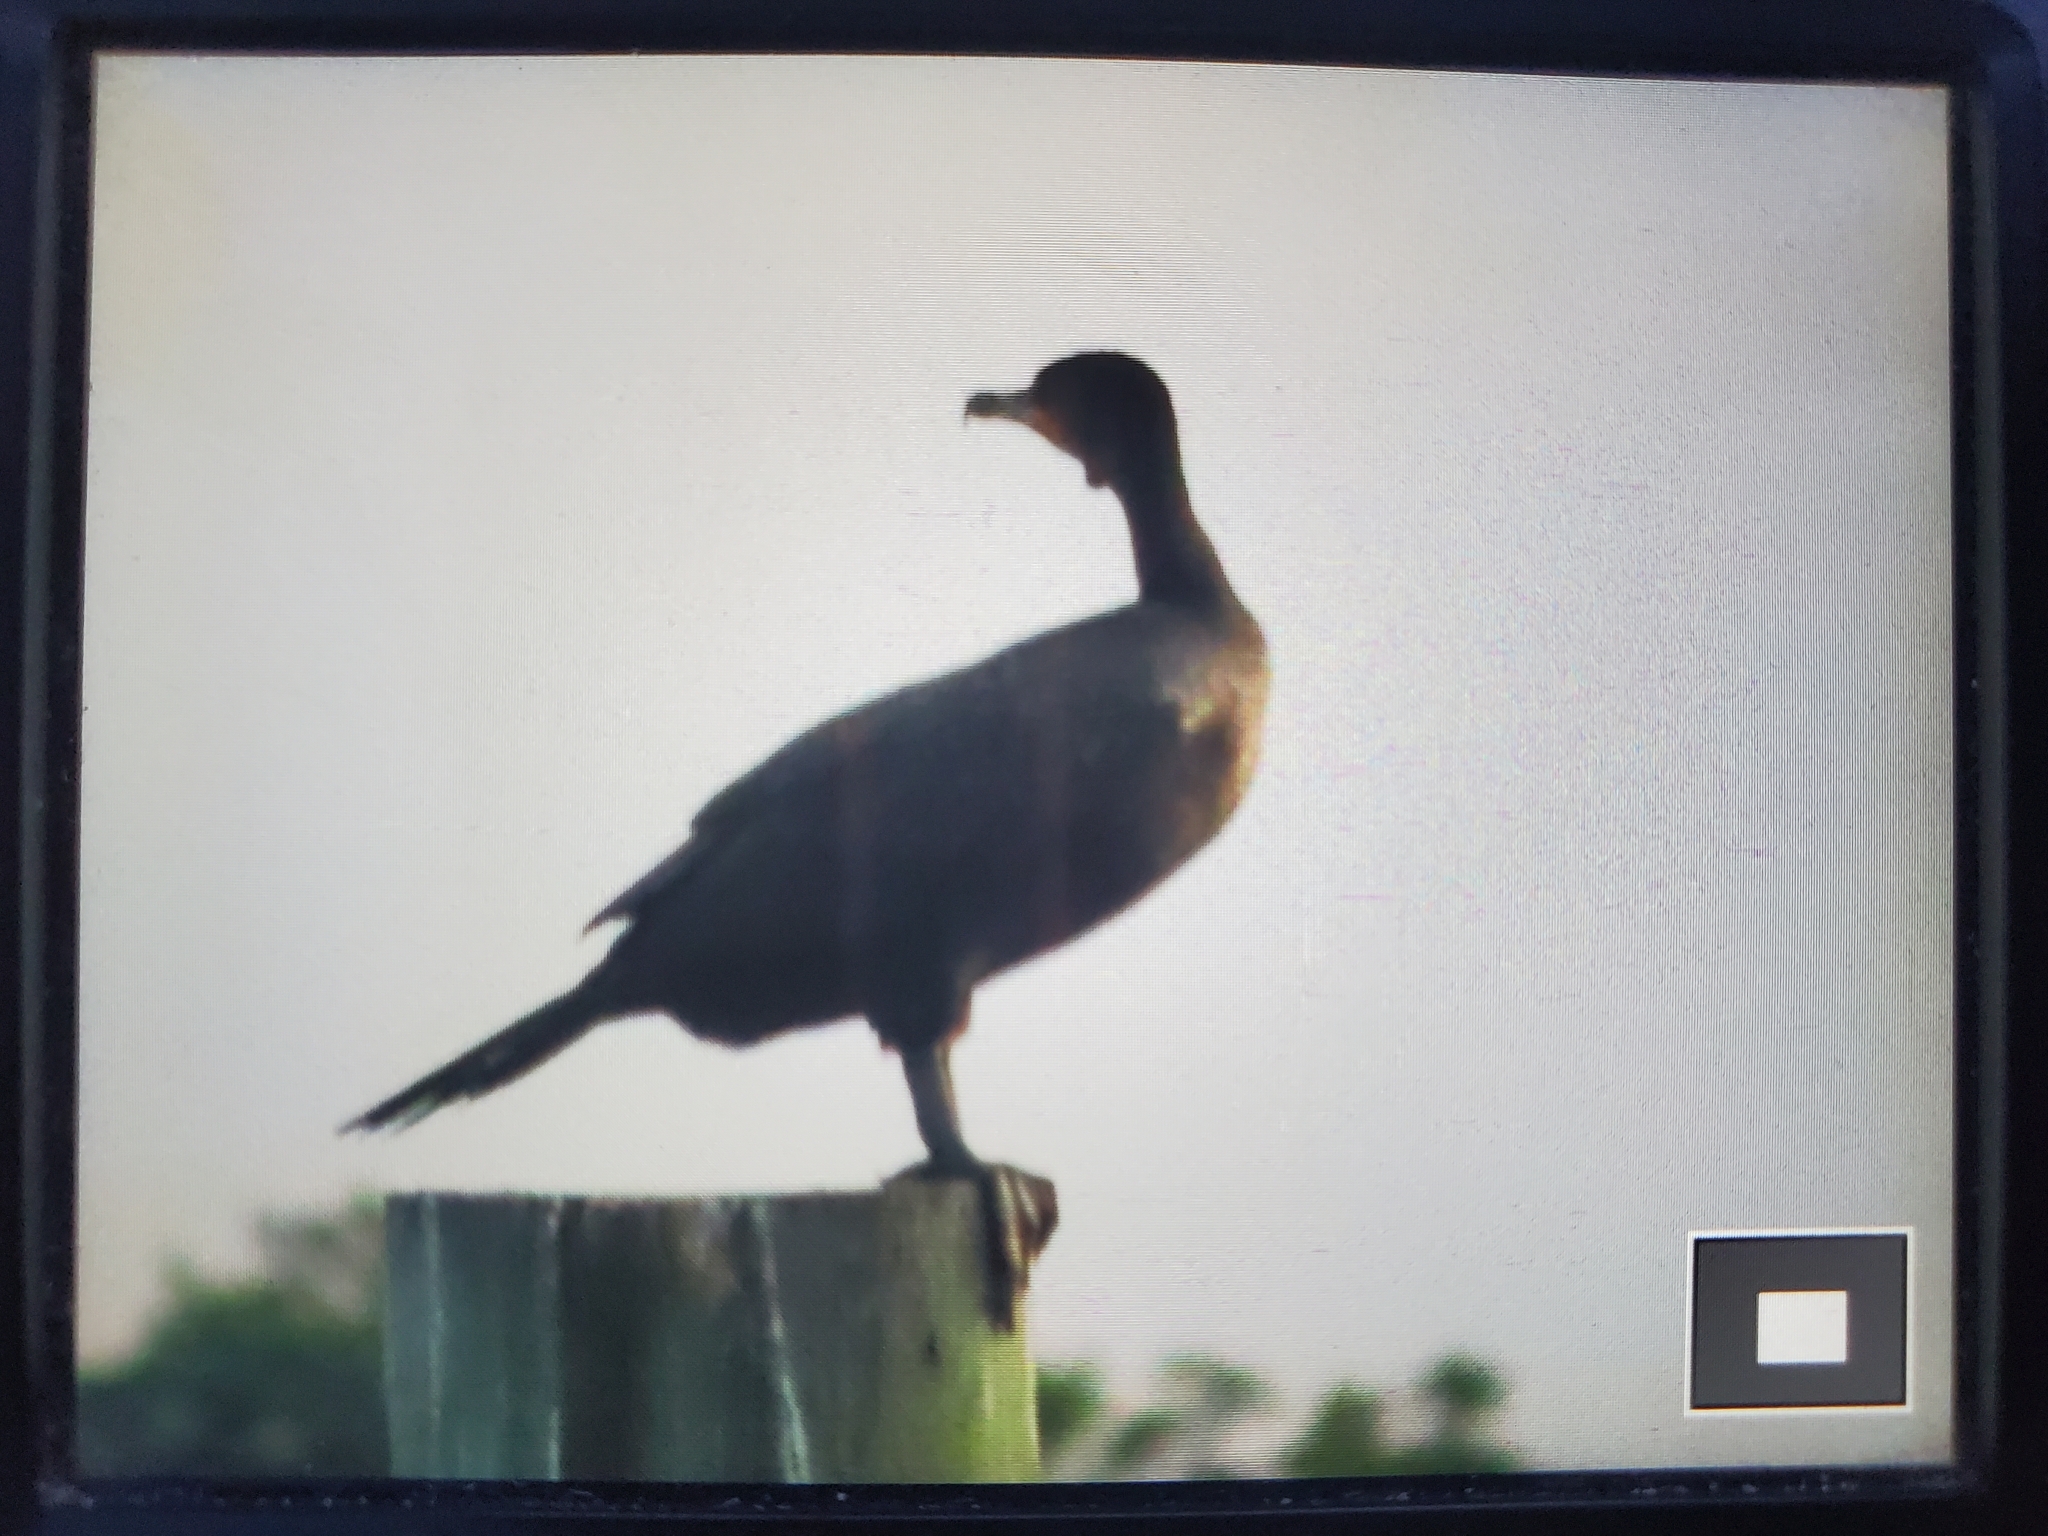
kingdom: Animalia
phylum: Chordata
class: Aves
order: Suliformes
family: Phalacrocoracidae
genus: Phalacrocorax
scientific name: Phalacrocorax auritus
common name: Double-crested cormorant
